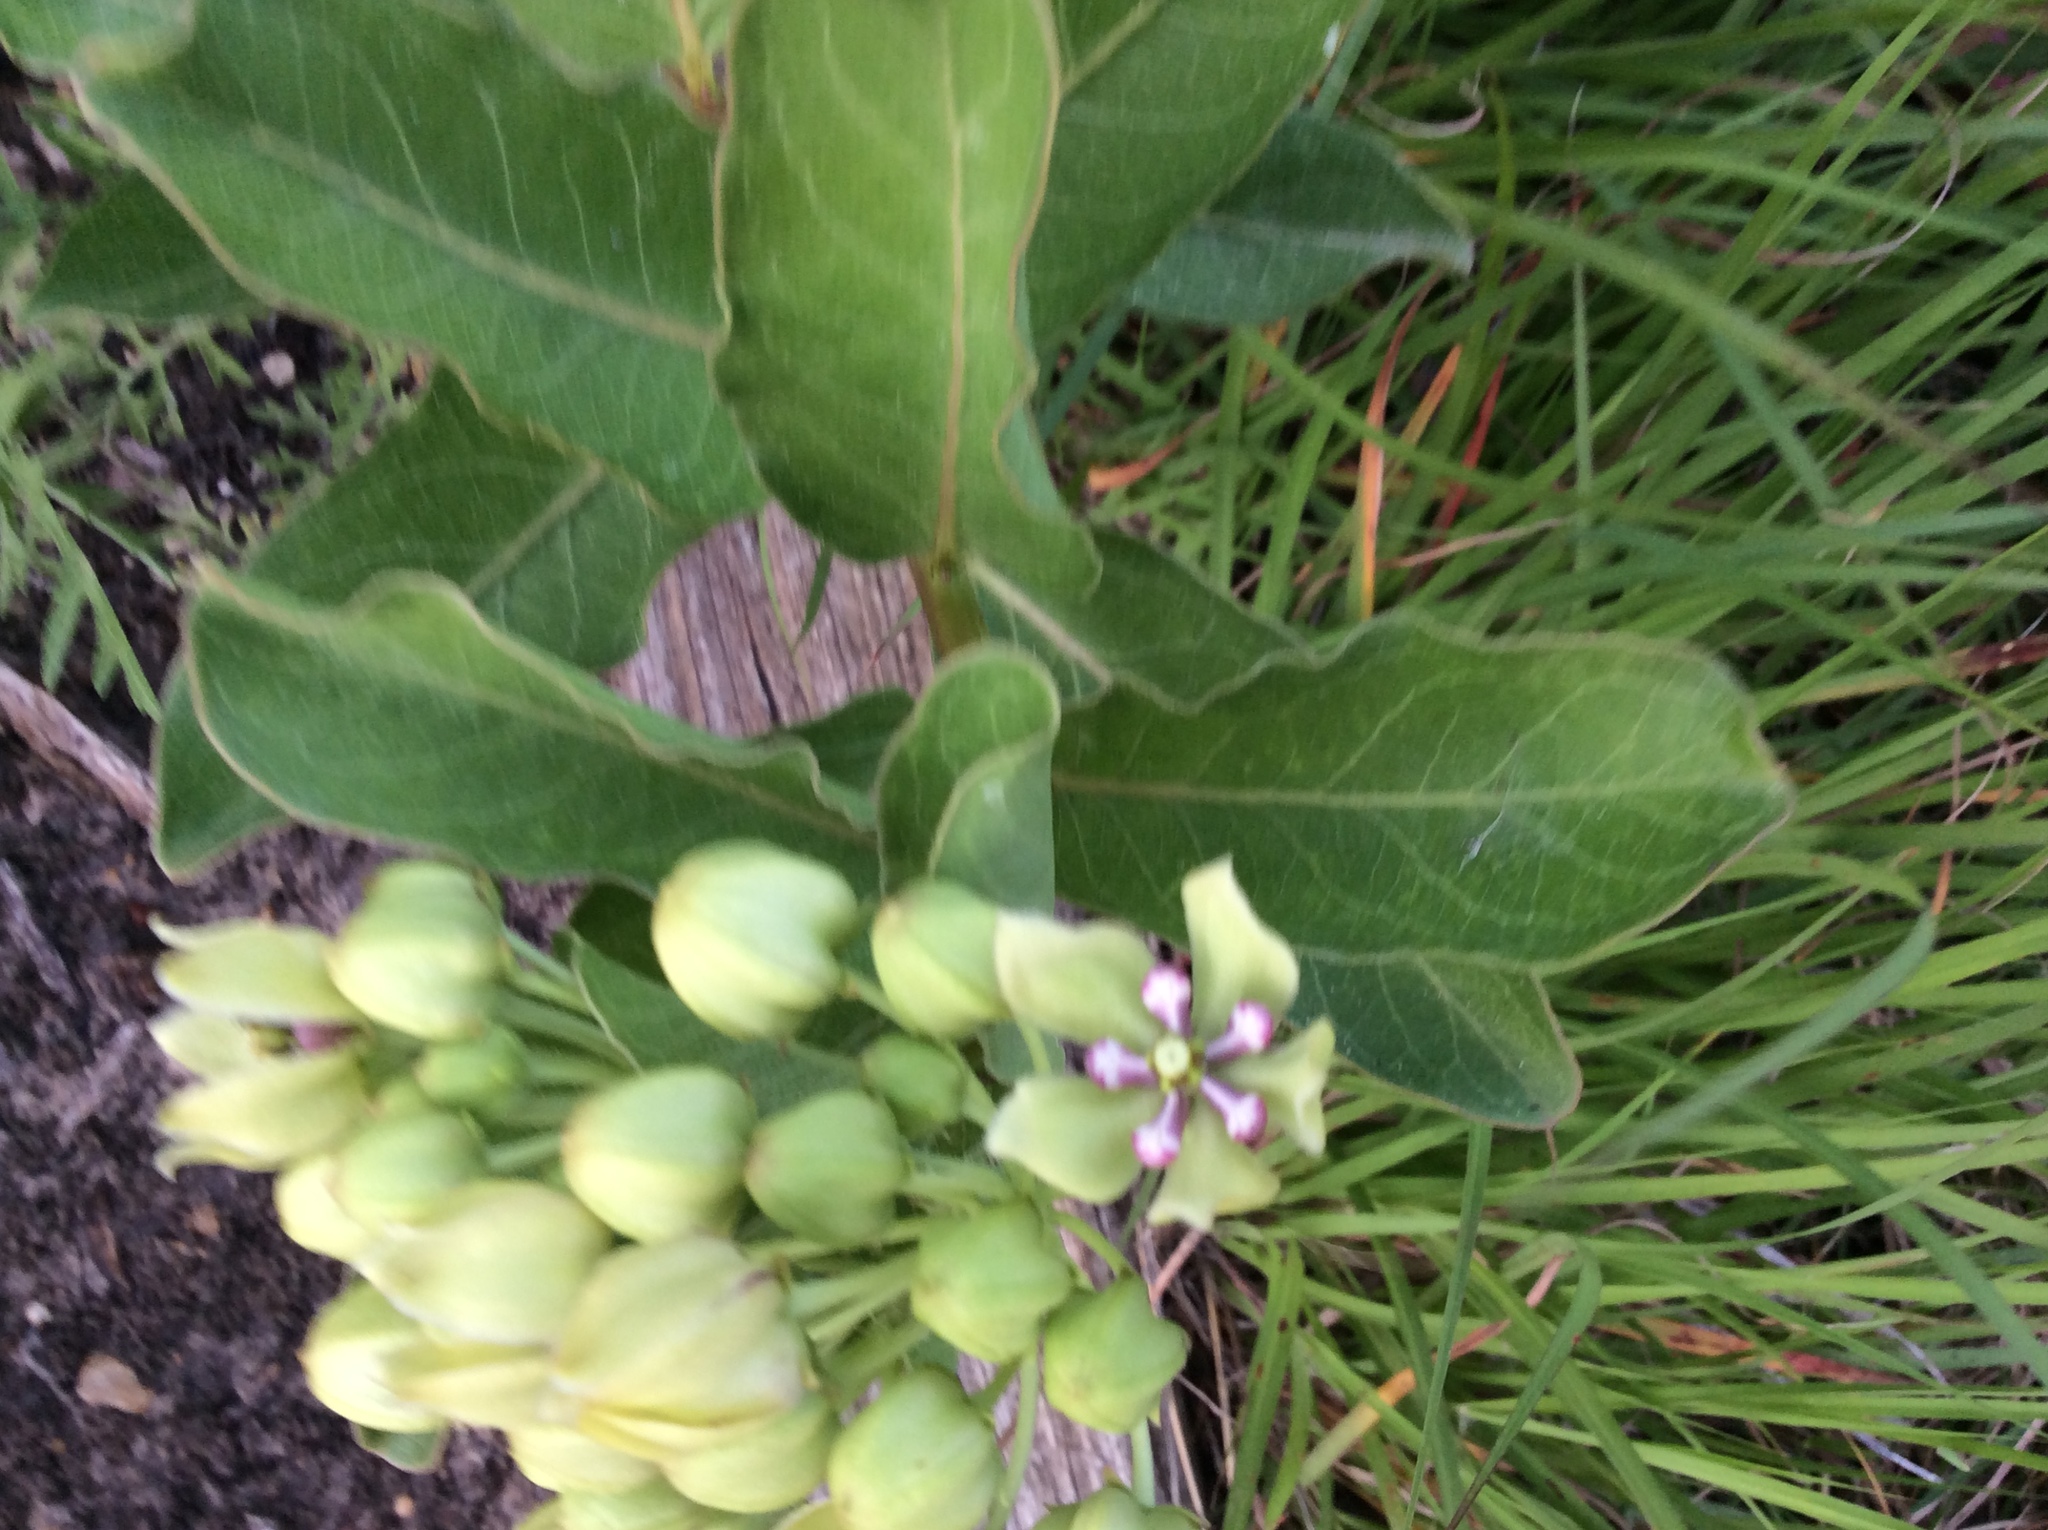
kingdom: Plantae
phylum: Tracheophyta
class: Magnoliopsida
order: Gentianales
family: Apocynaceae
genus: Asclepias
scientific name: Asclepias viridis
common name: Antelope-horns
